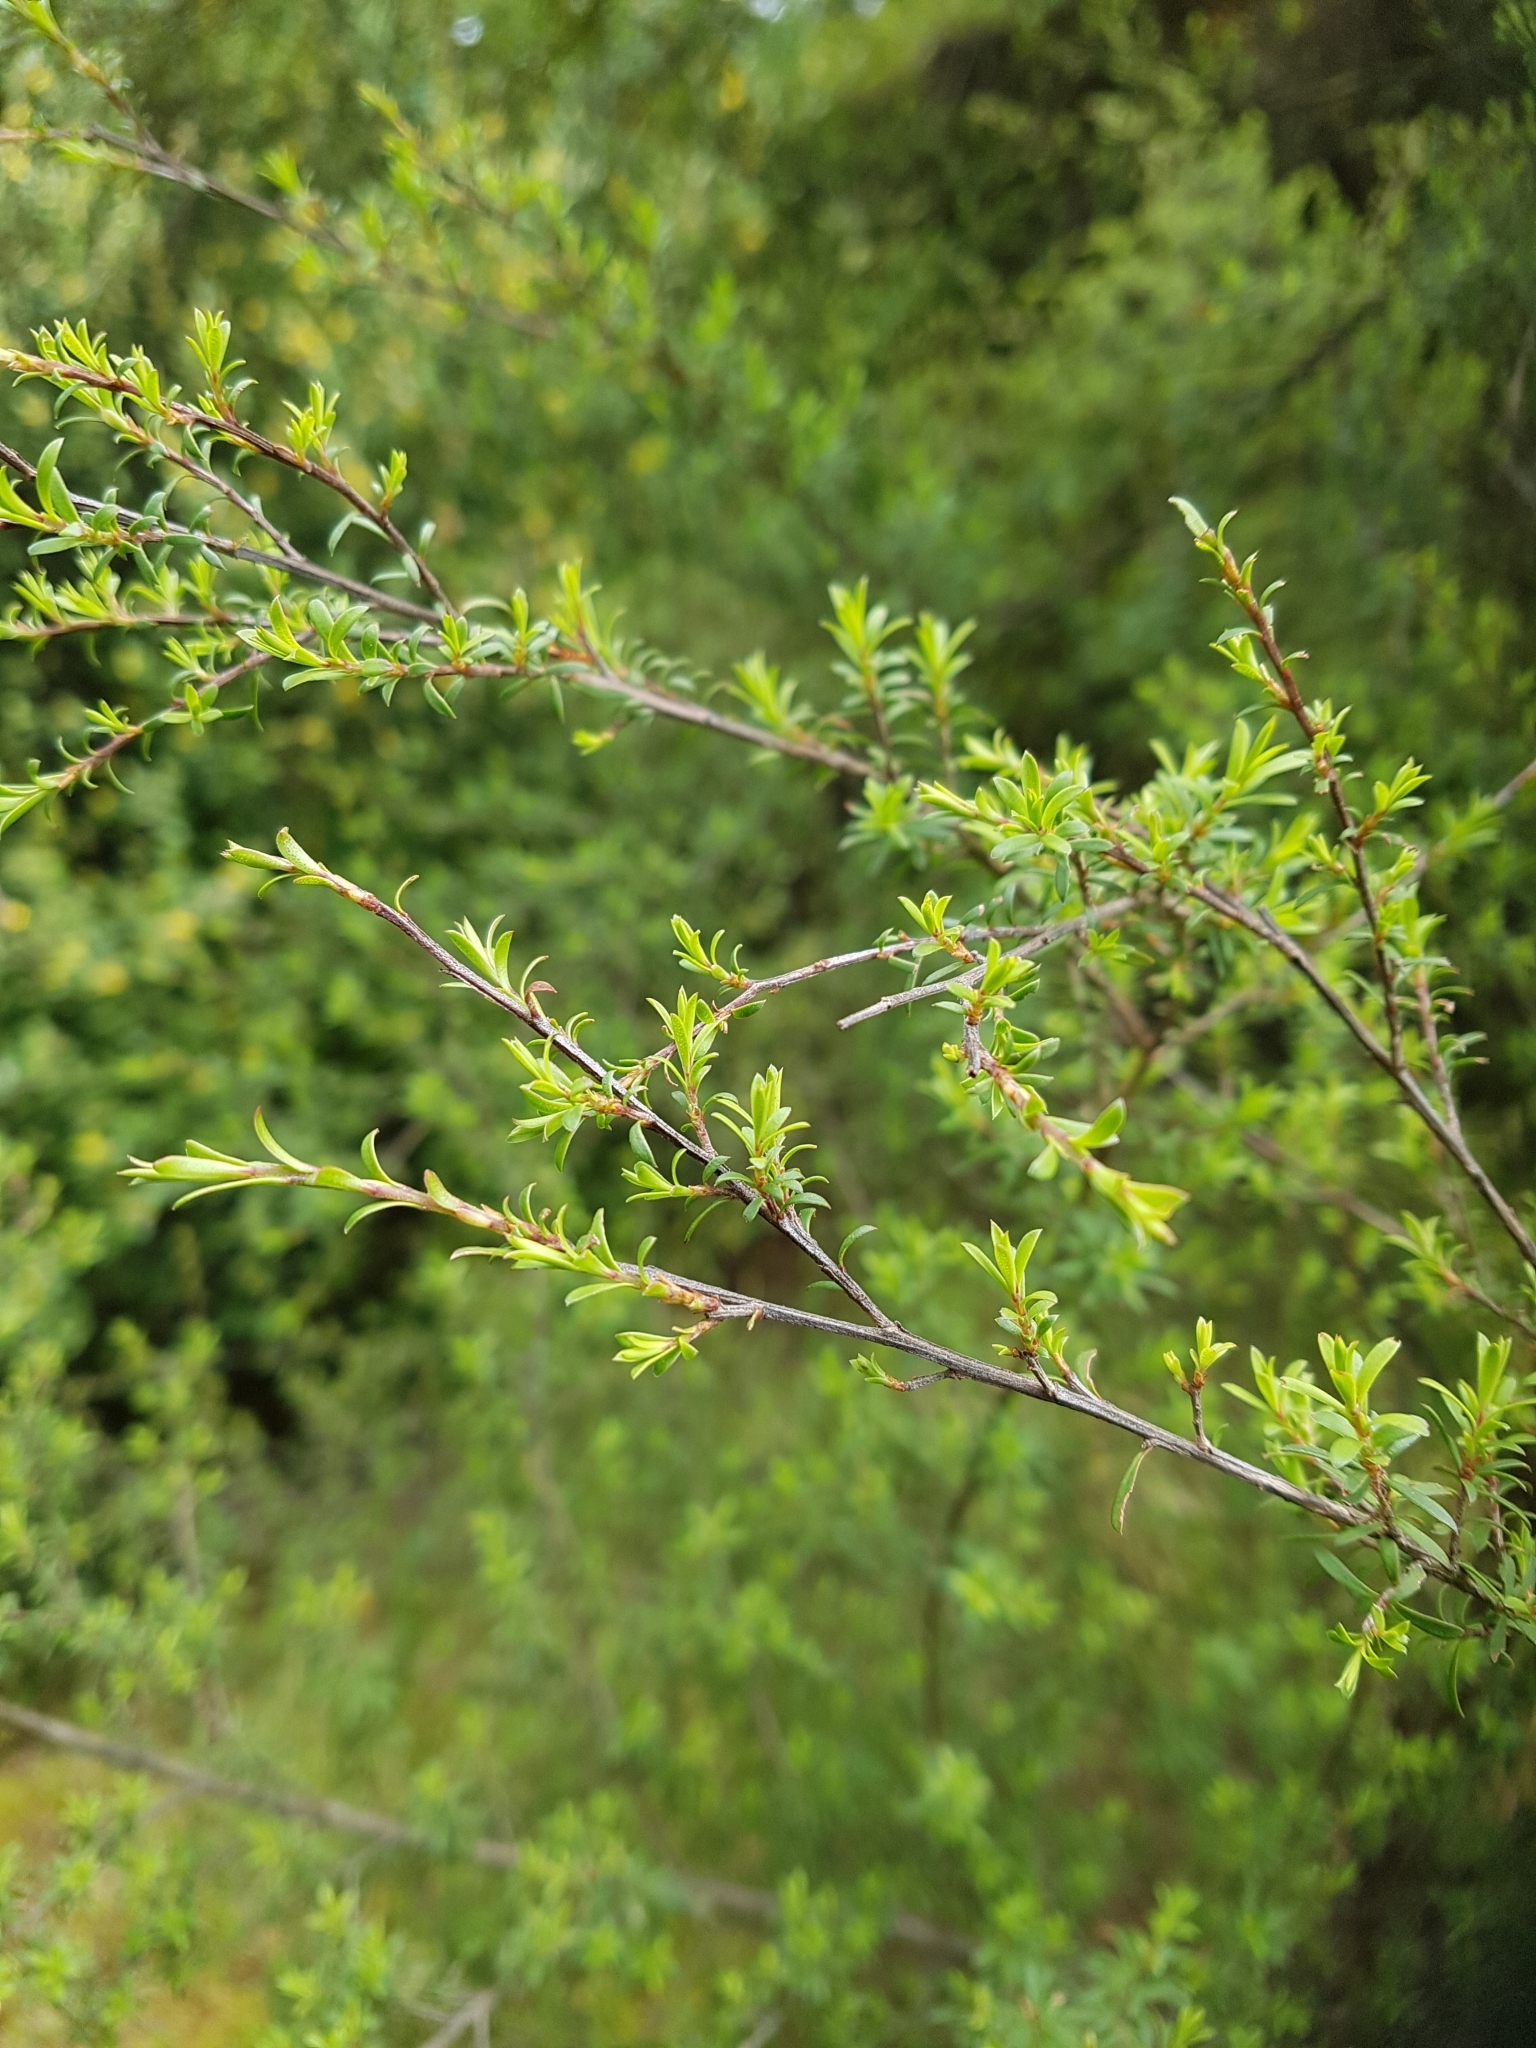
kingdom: Plantae
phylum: Tracheophyta
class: Magnoliopsida
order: Myrtales
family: Myrtaceae
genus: Kunzea
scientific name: Kunzea robusta
